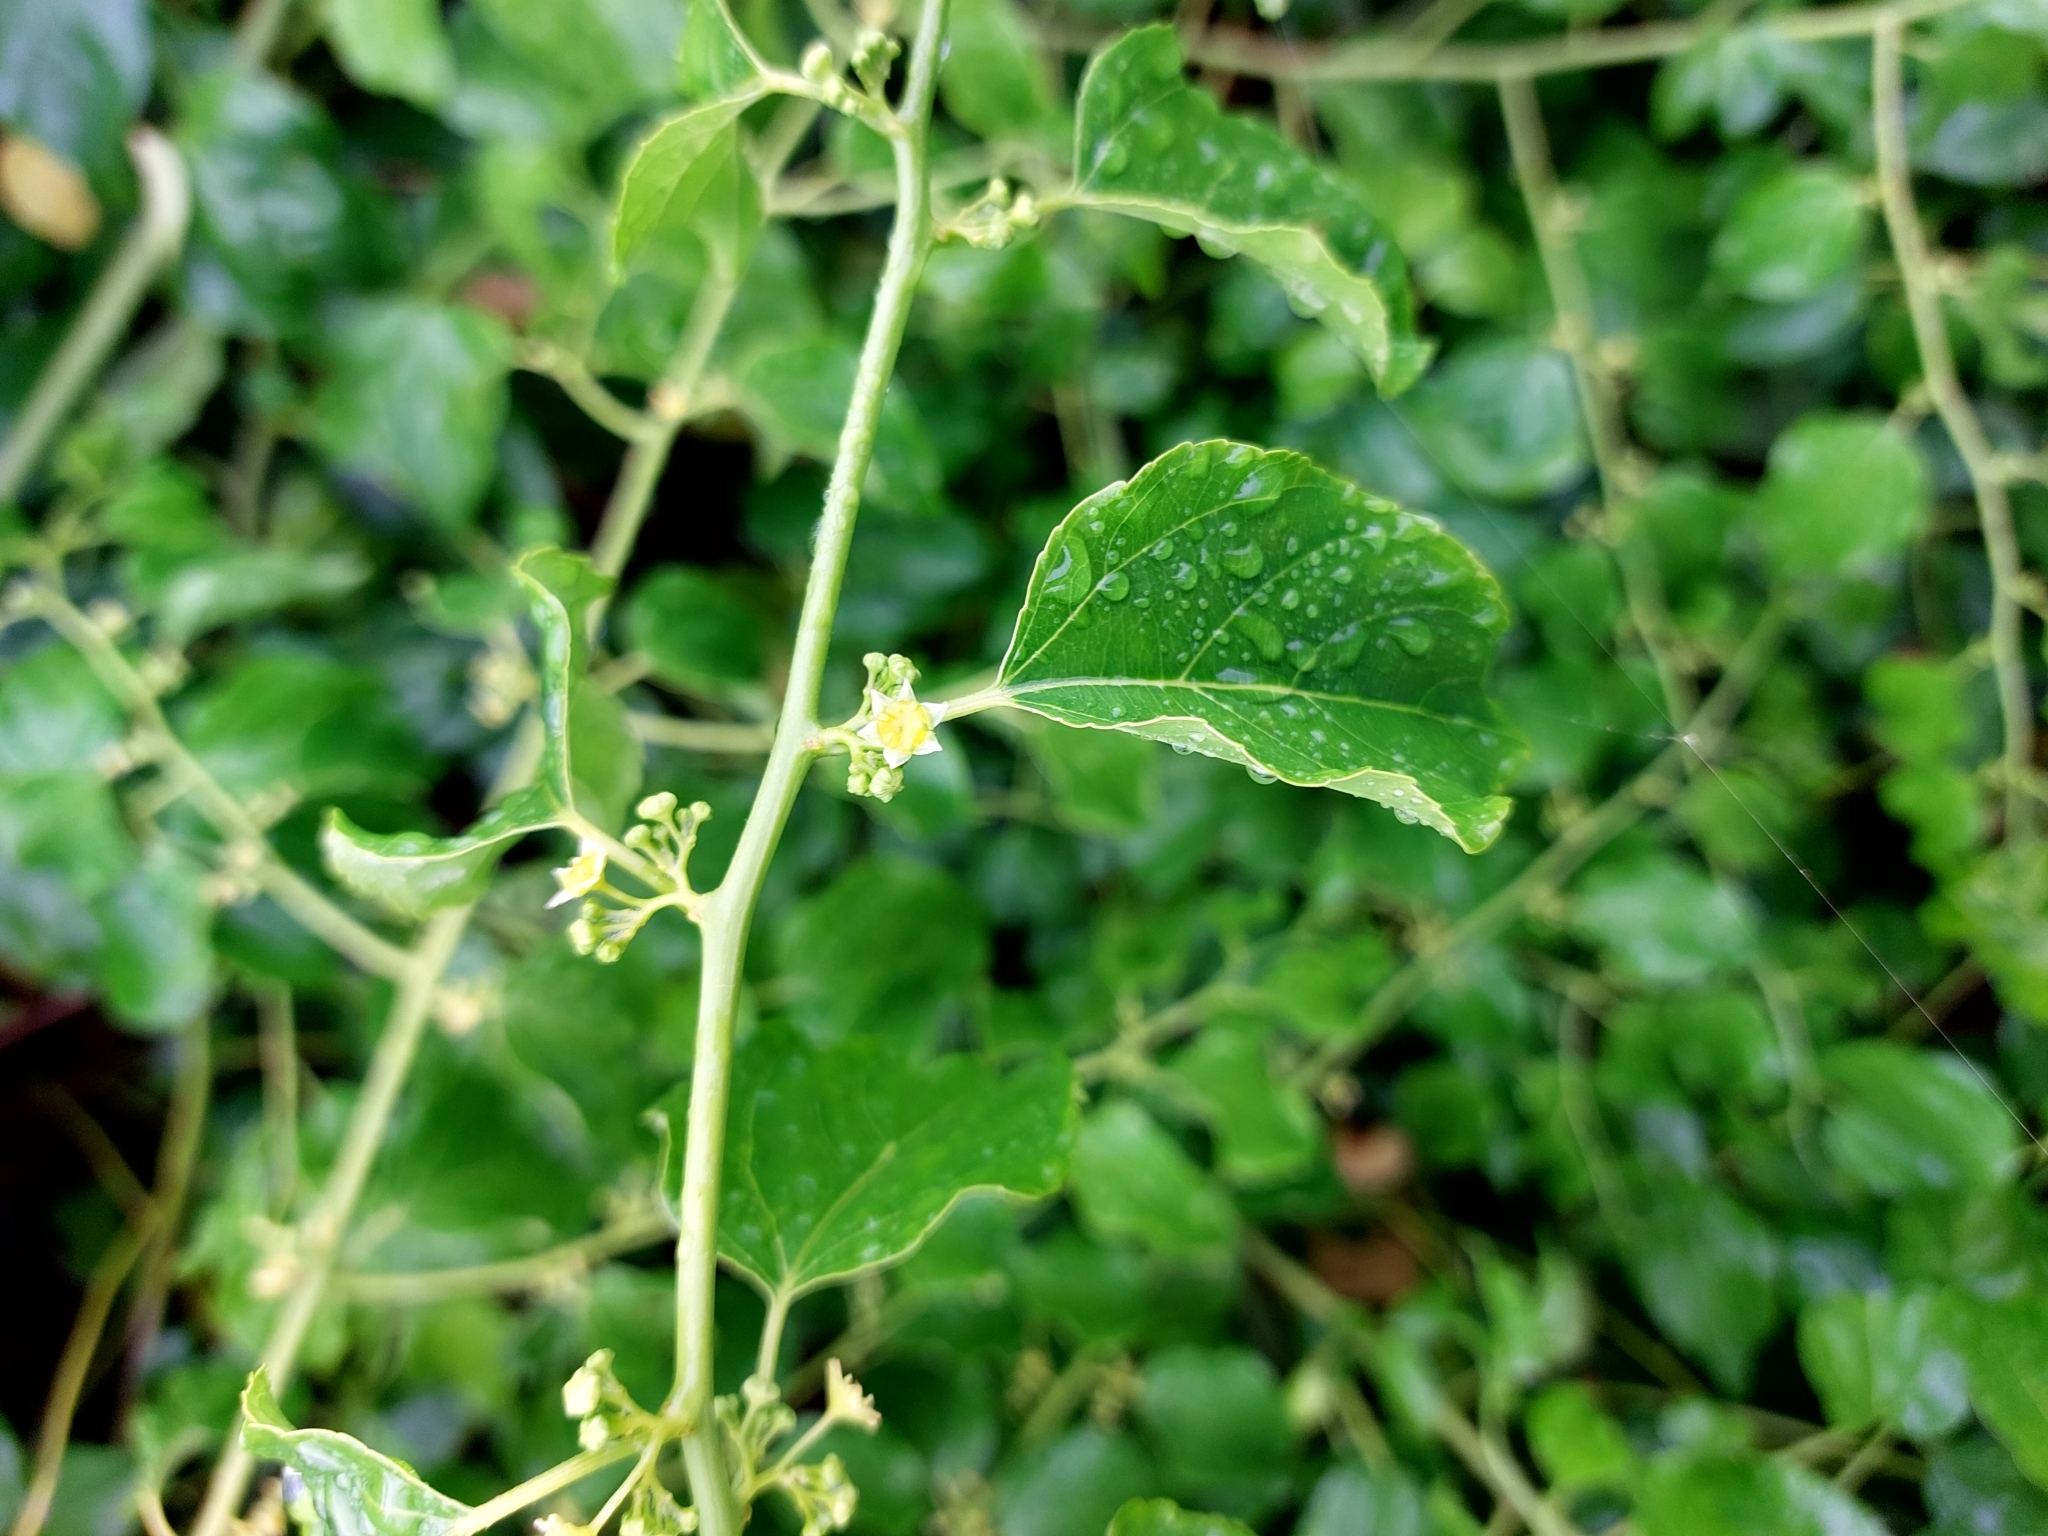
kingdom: Plantae
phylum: Tracheophyta
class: Magnoliopsida
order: Rosales
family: Rhamnaceae
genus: Colubrina
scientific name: Colubrina asiatica
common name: Asian nakedwood
